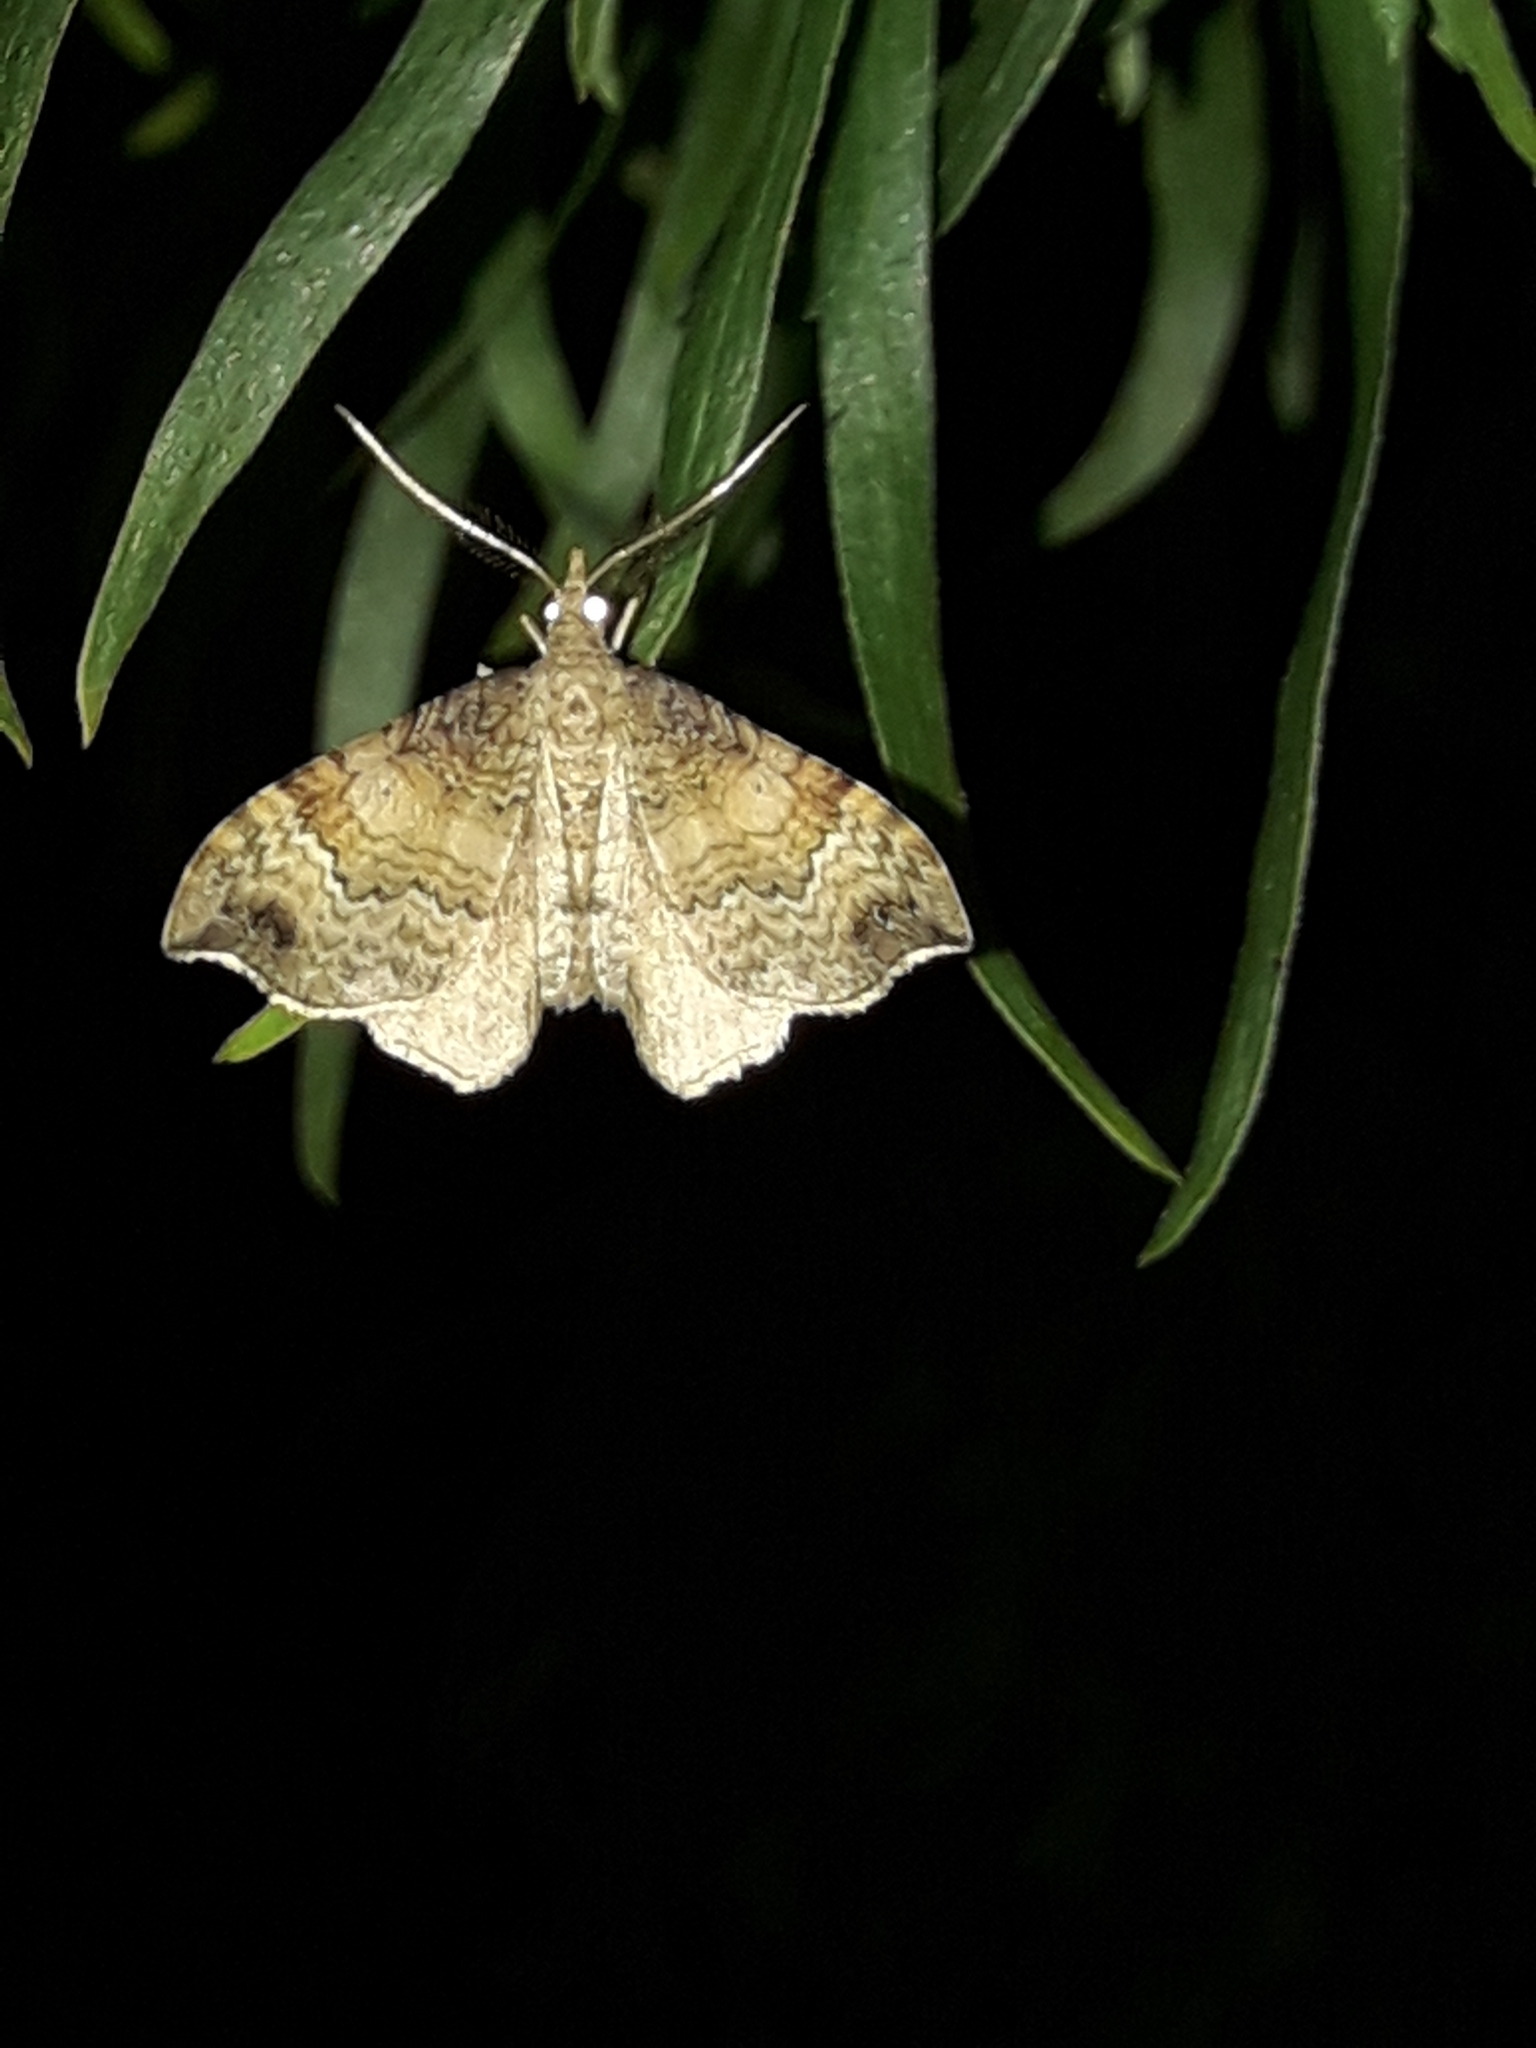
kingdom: Animalia
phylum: Arthropoda
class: Insecta
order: Lepidoptera
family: Geometridae
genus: Homodotis
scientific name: Homodotis megaspilata
